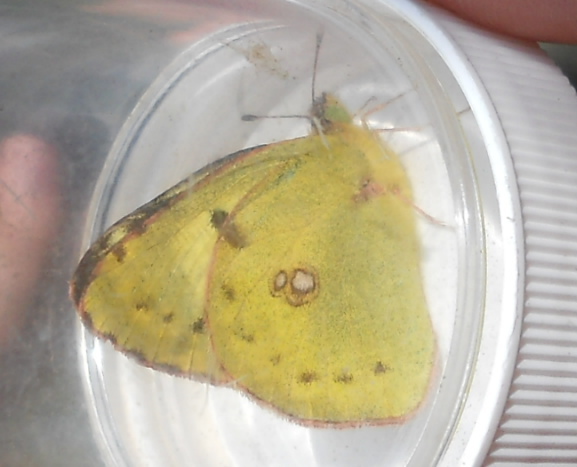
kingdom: Animalia
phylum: Arthropoda
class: Insecta
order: Lepidoptera
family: Pieridae
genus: Colias
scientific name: Colias hyale
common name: Pale clouded yellow
